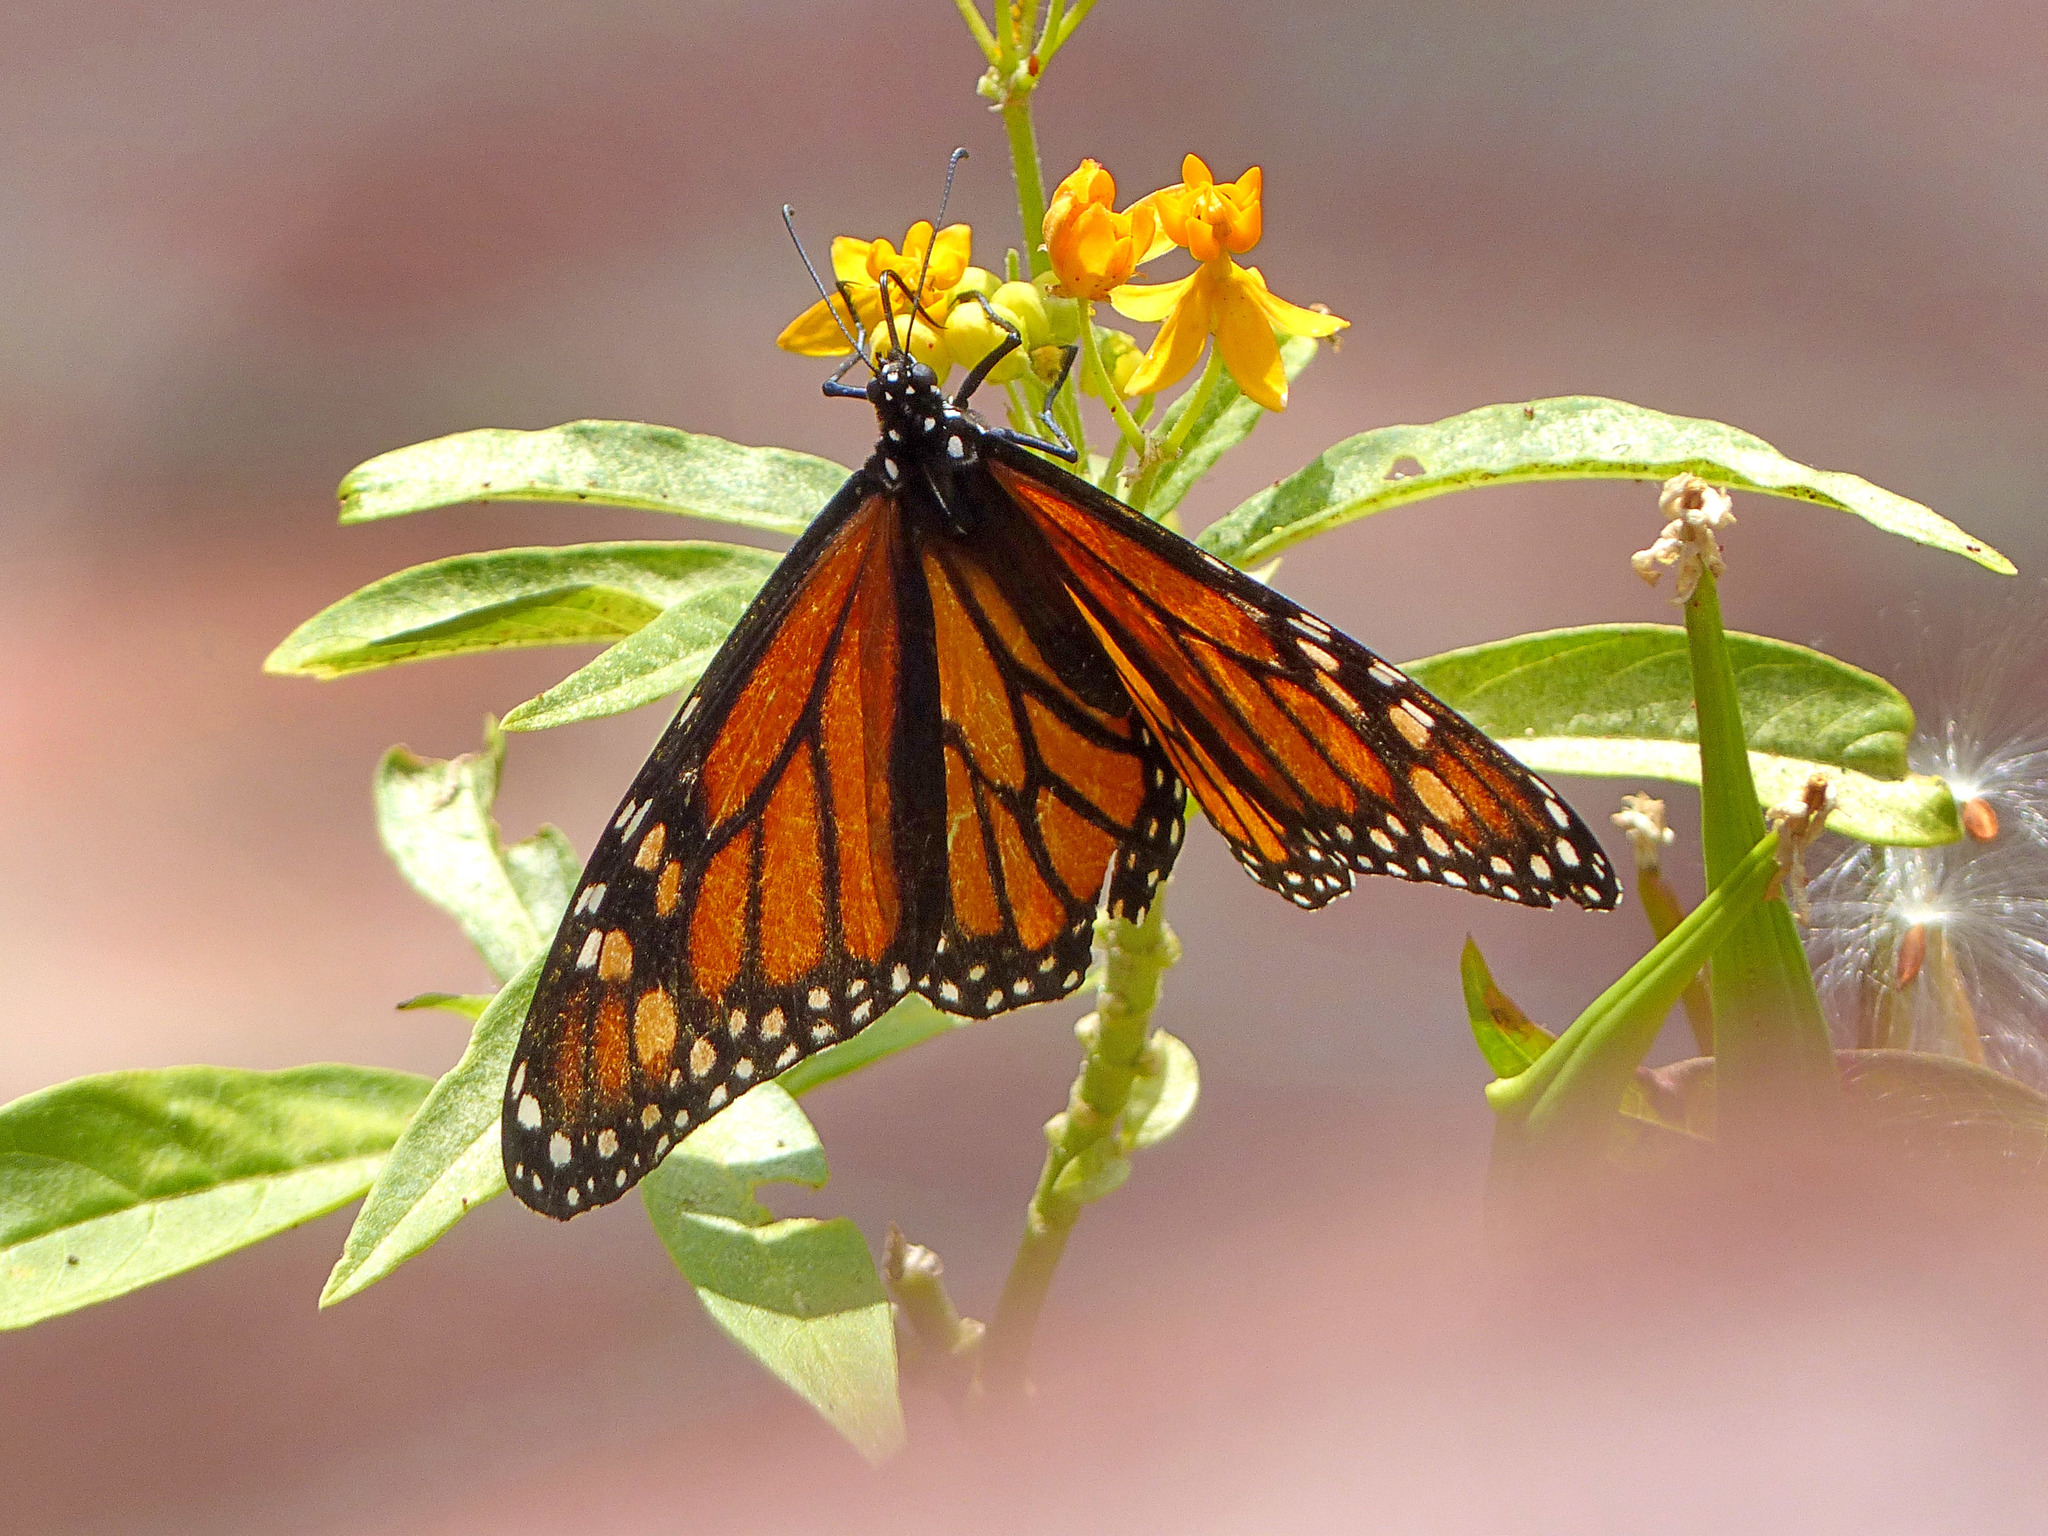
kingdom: Animalia
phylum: Arthropoda
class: Insecta
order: Lepidoptera
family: Nymphalidae
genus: Danaus
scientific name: Danaus plexippus
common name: Monarch
